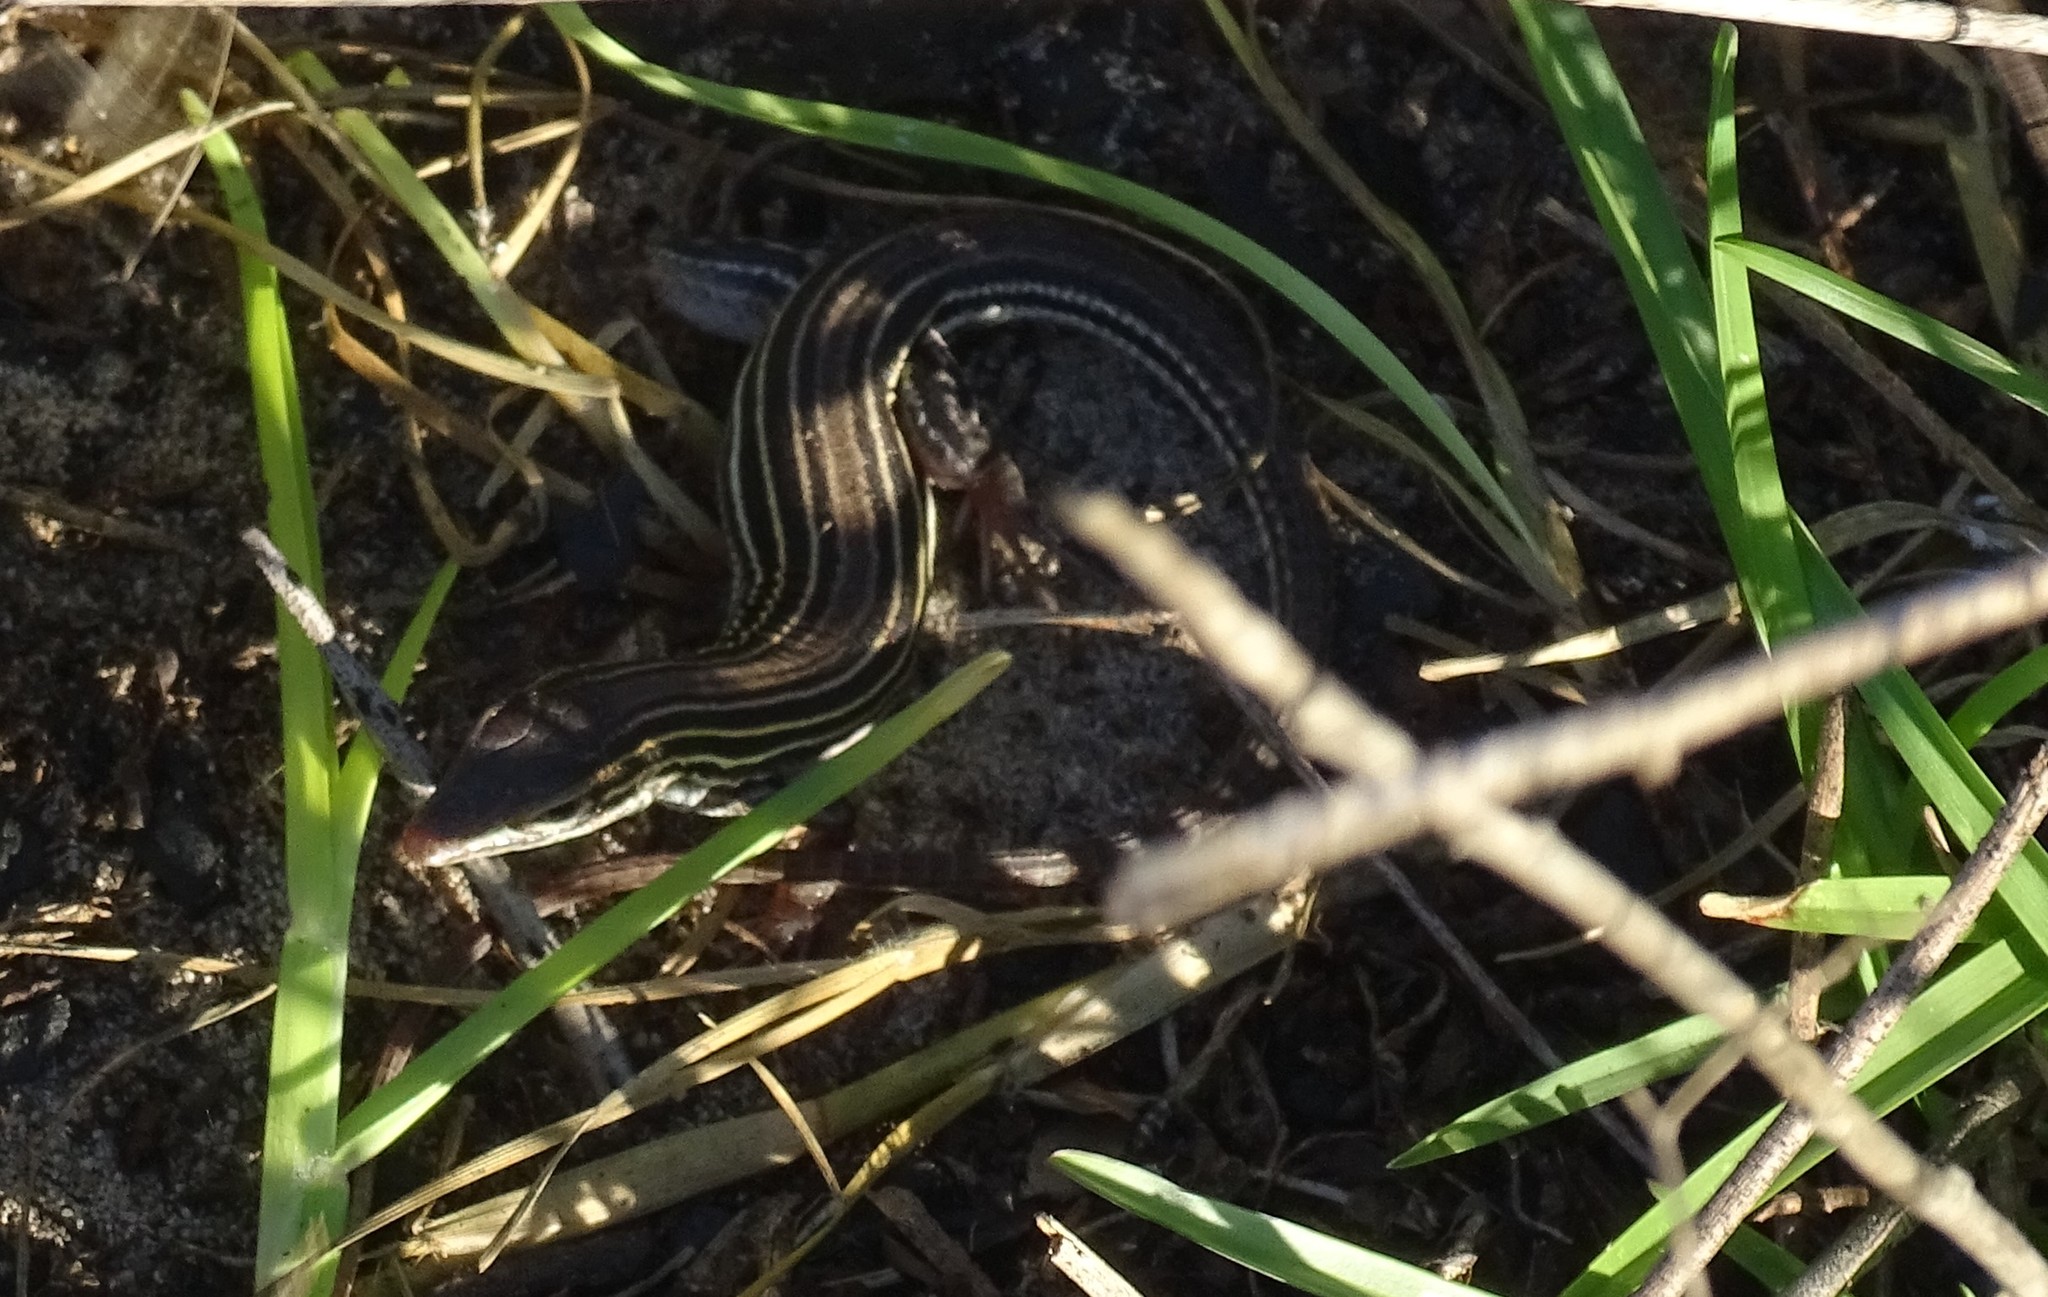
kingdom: Animalia
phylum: Chordata
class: Squamata
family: Teiidae
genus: Aspidoscelis
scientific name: Aspidoscelis sexlineatus
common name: Six-lined racerunner
